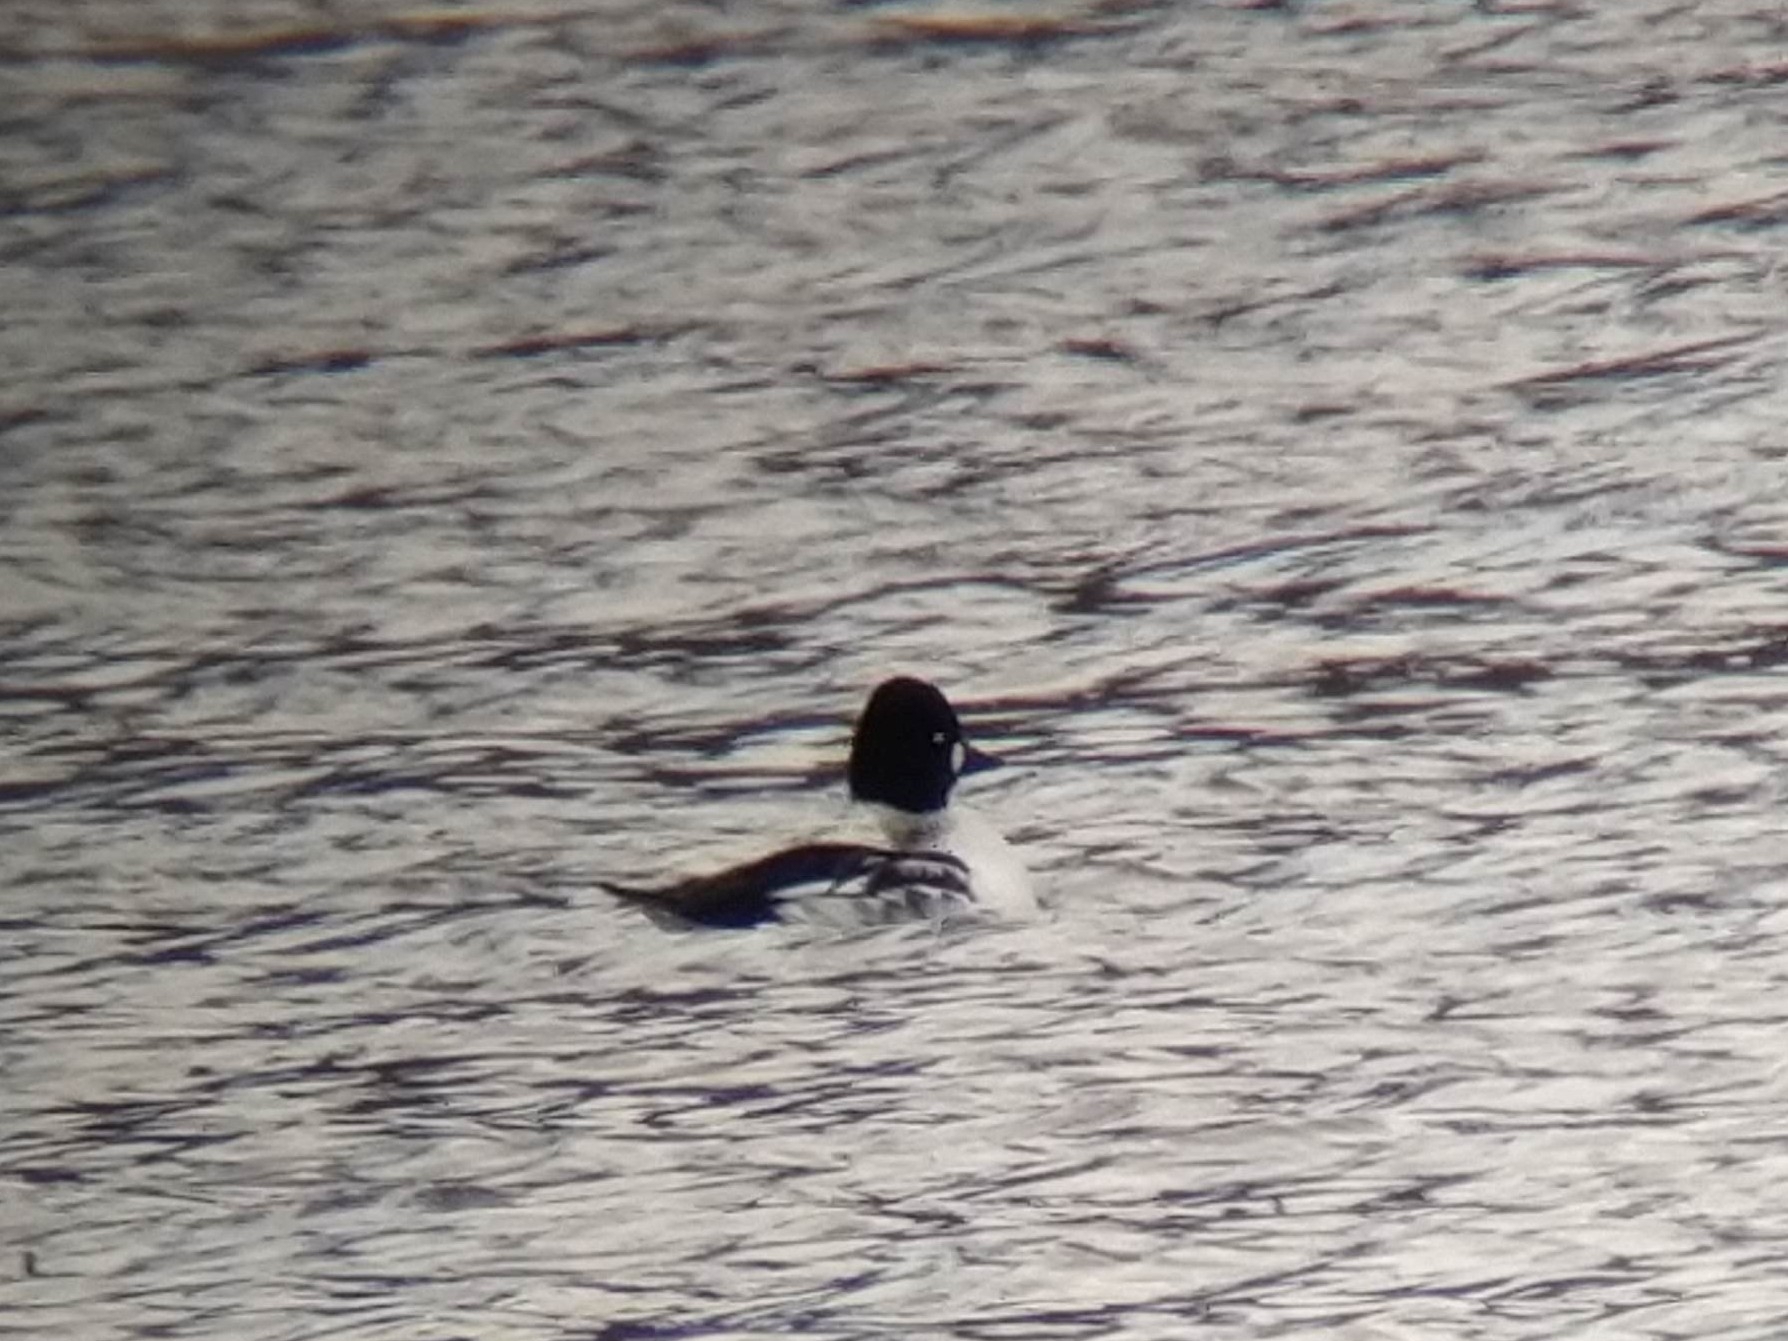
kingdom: Animalia
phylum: Chordata
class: Aves
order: Anseriformes
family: Anatidae
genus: Bucephala
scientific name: Bucephala clangula
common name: Common goldeneye
